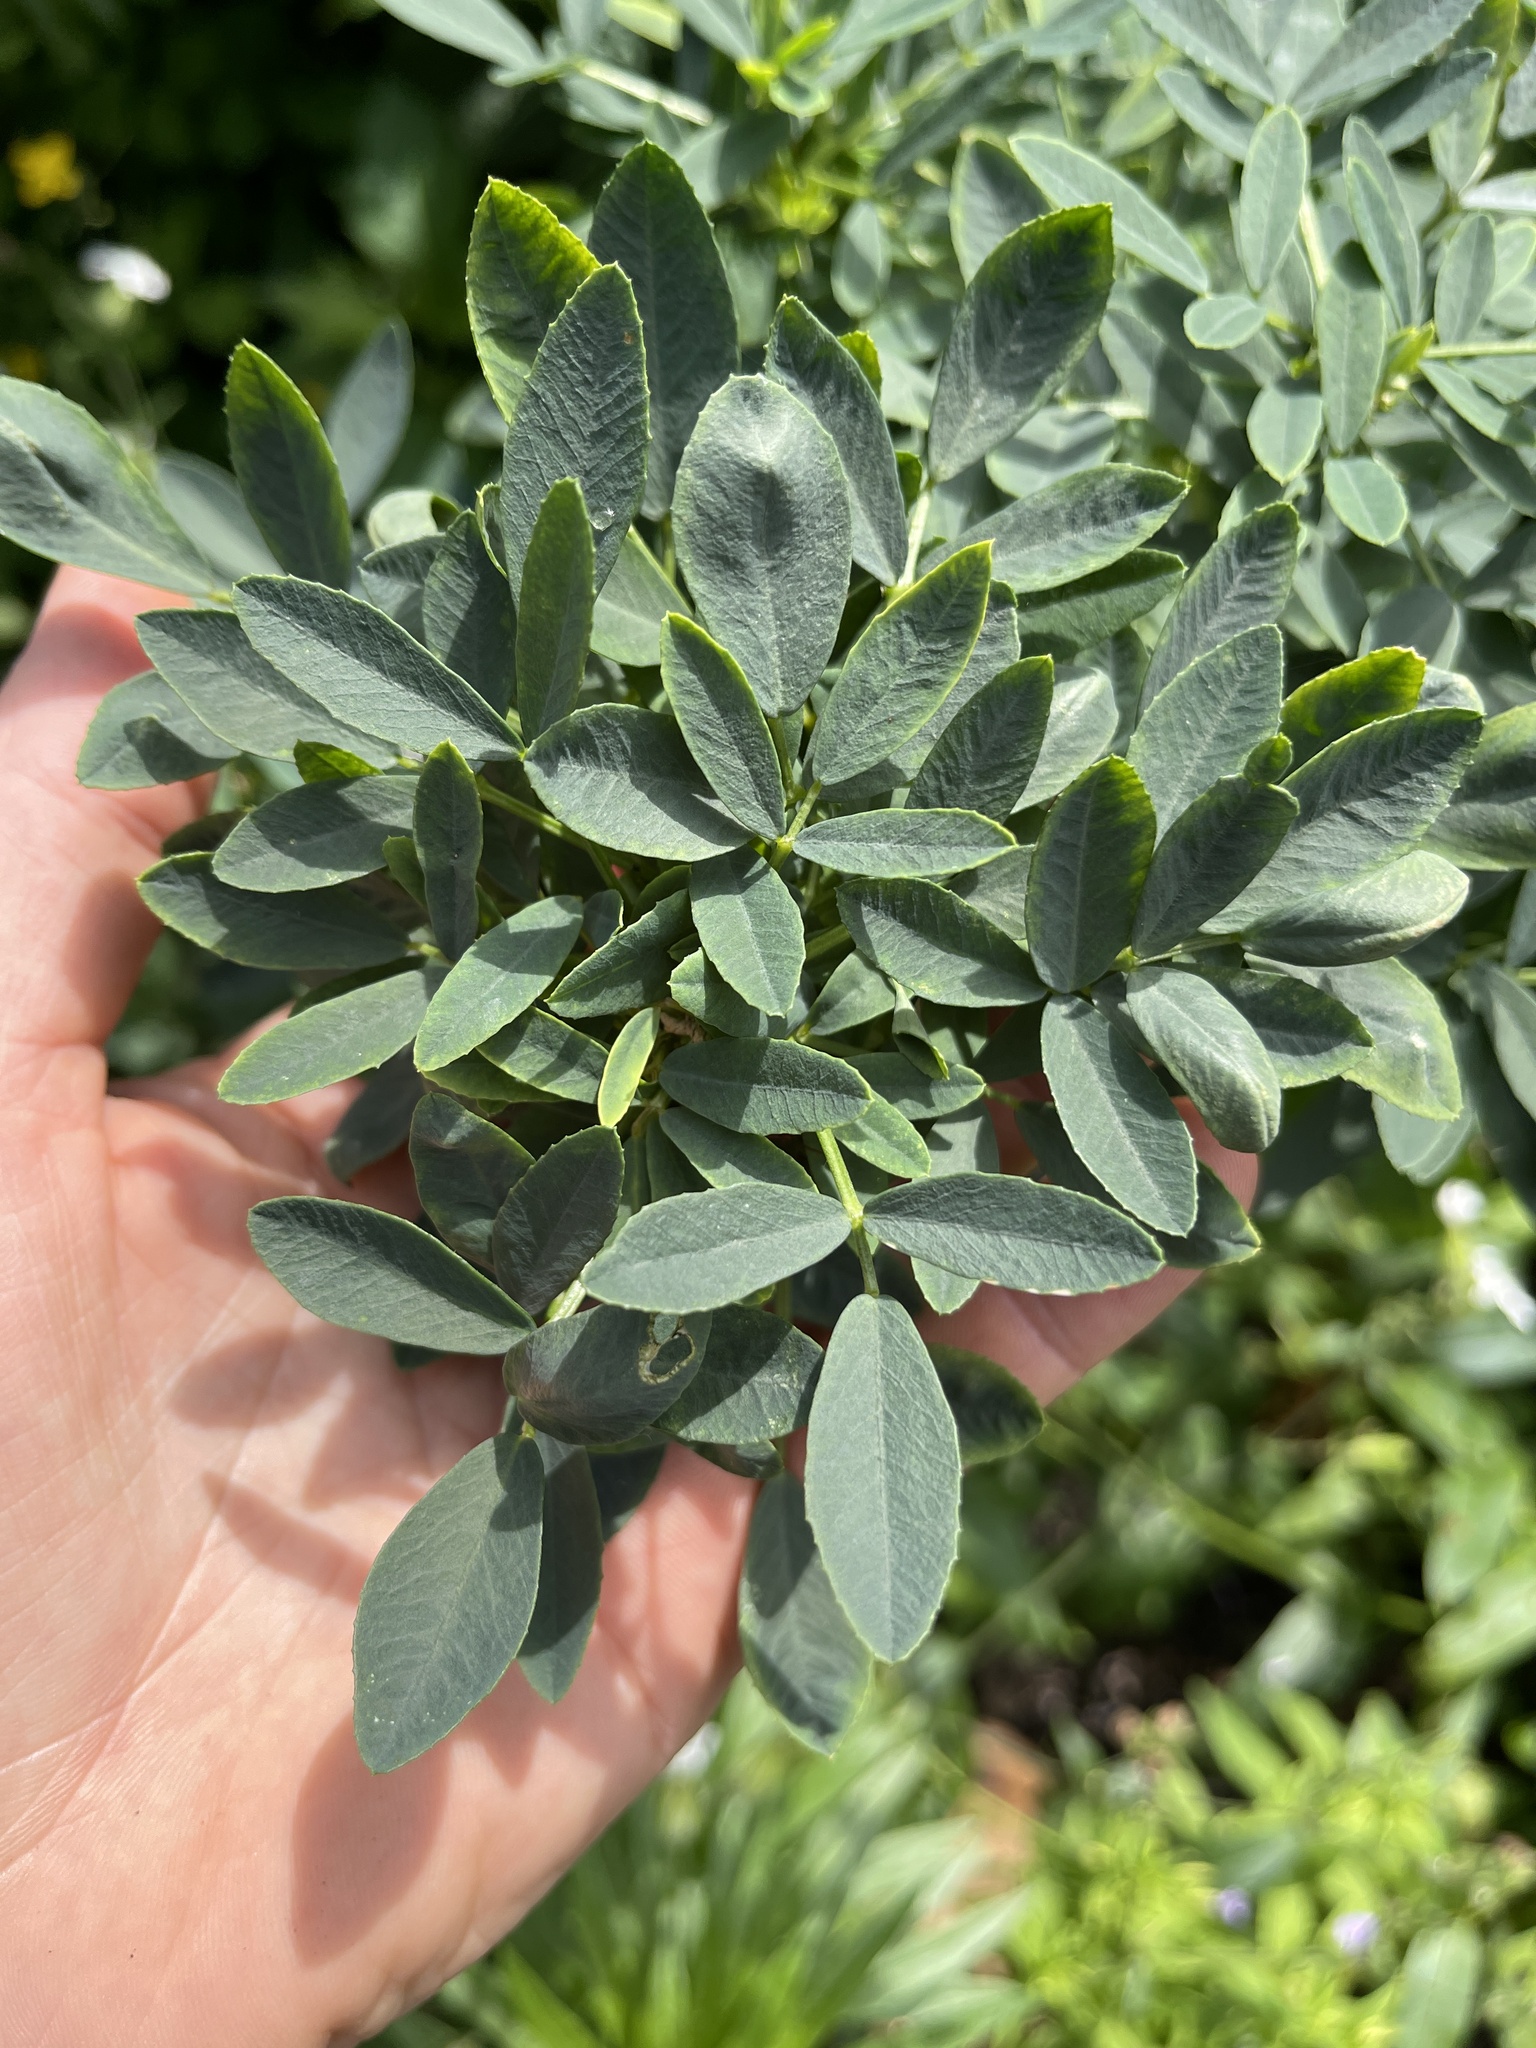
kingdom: Plantae
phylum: Tracheophyta
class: Magnoliopsida
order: Fabales
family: Fabaceae
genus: Melilotus
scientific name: Melilotus albus
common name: White melilot
